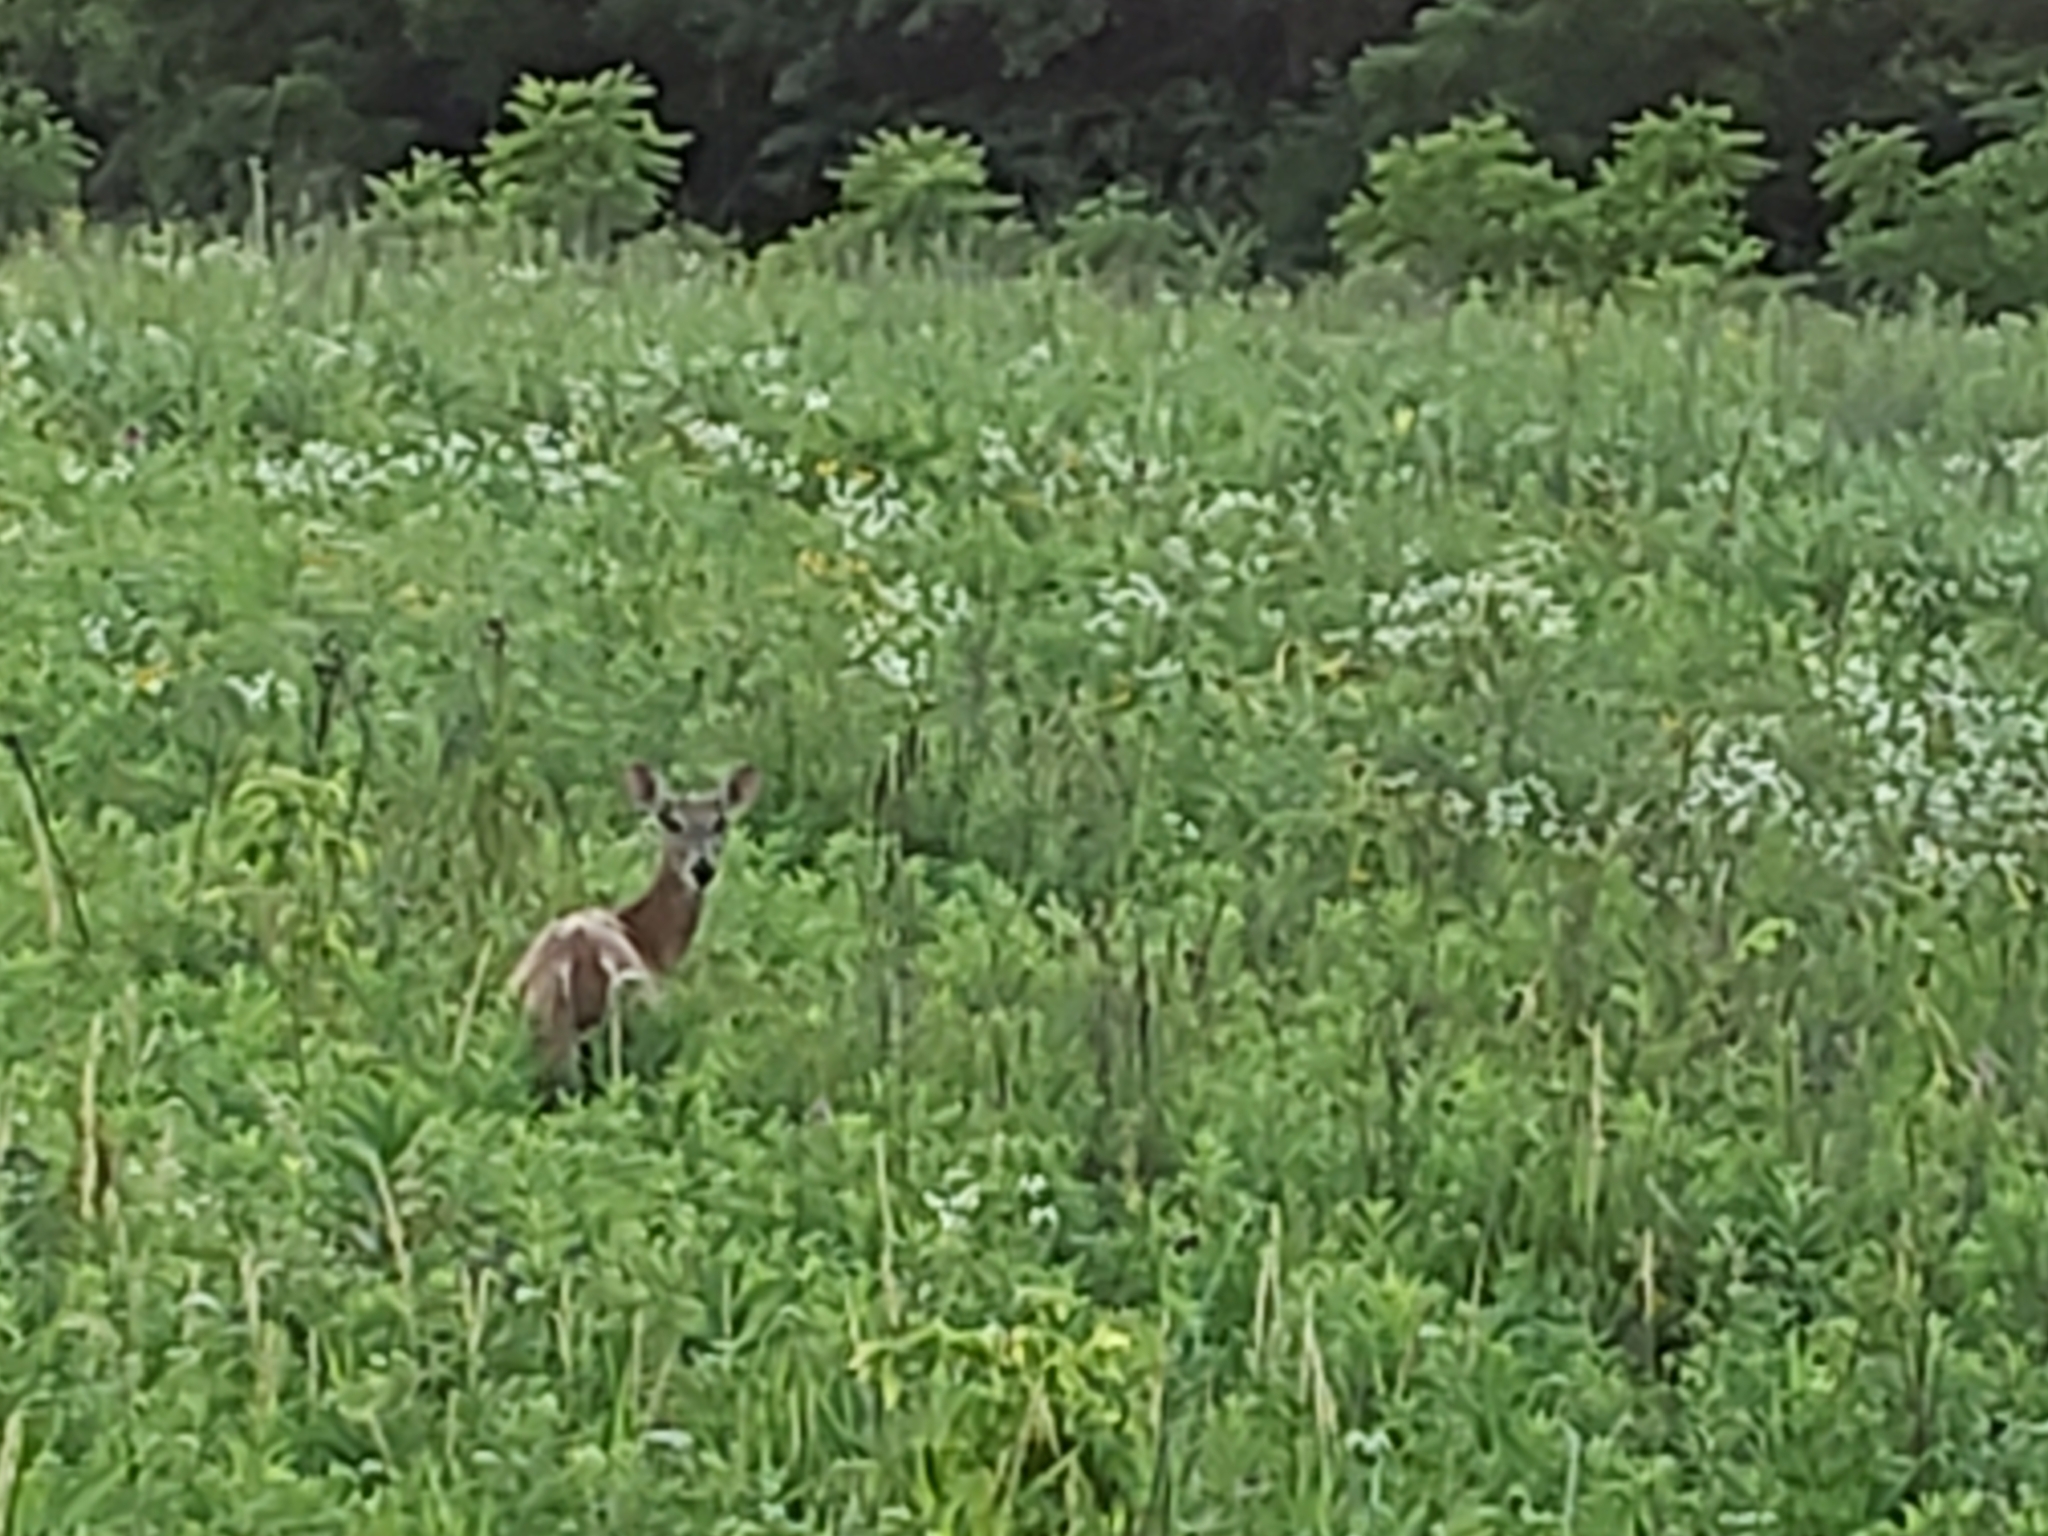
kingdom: Animalia
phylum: Chordata
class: Mammalia
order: Artiodactyla
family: Cervidae
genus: Odocoileus
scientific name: Odocoileus virginianus
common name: White-tailed deer
